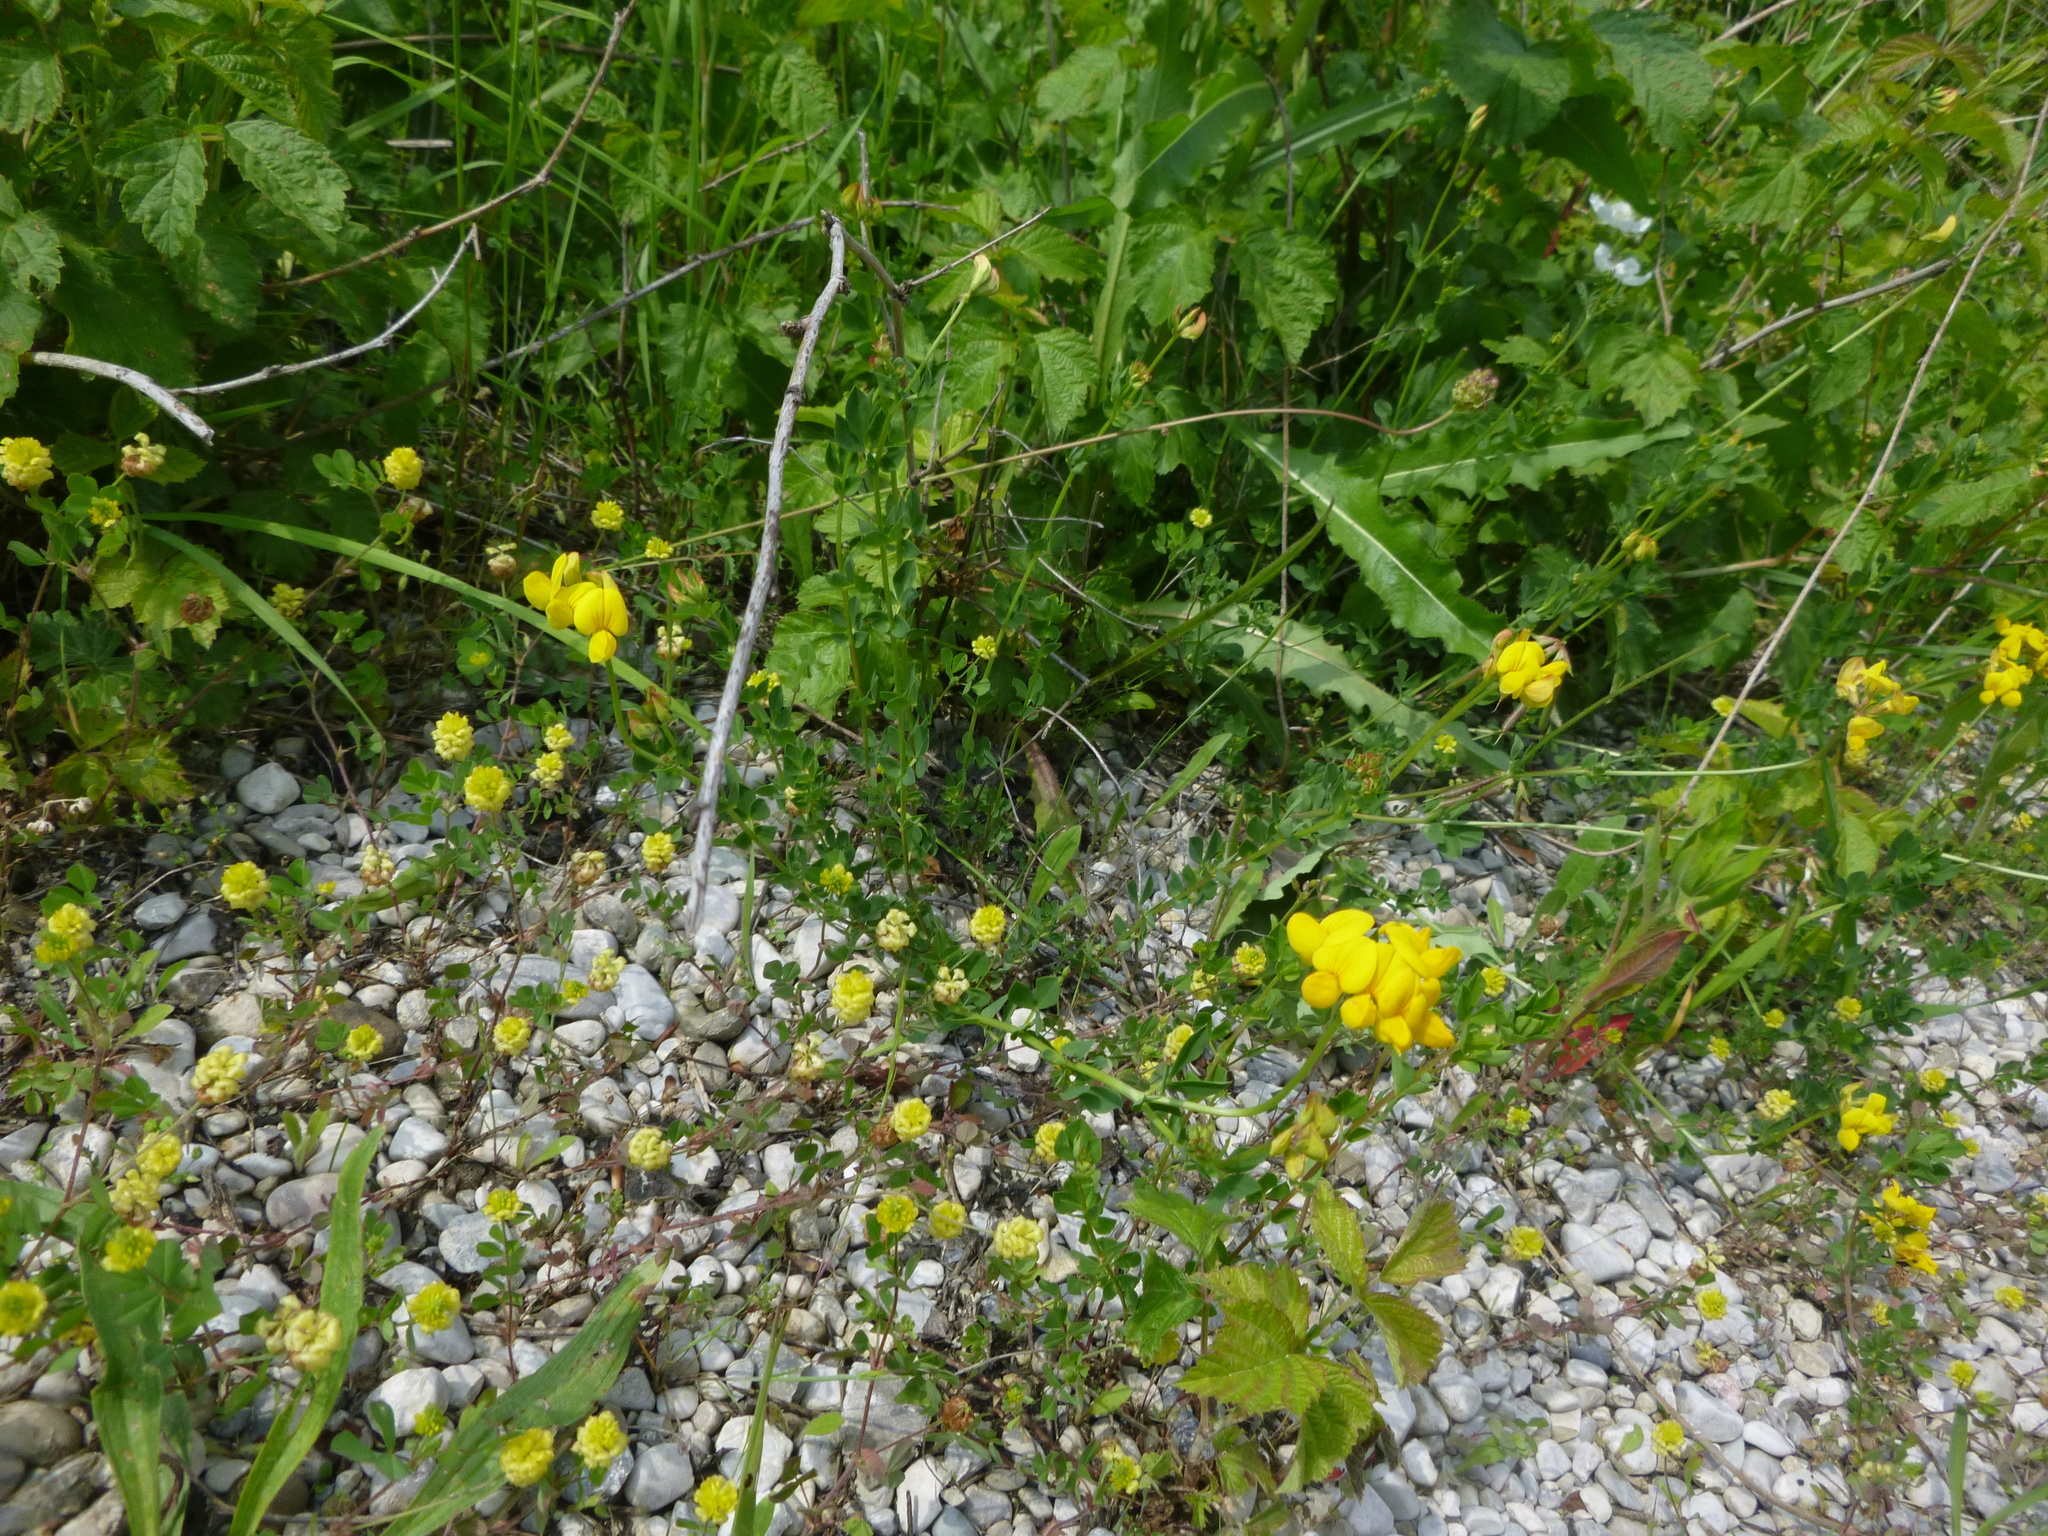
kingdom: Plantae
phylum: Tracheophyta
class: Magnoliopsida
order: Fabales
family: Fabaceae
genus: Lotus
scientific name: Lotus corniculatus
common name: Common bird's-foot-trefoil
